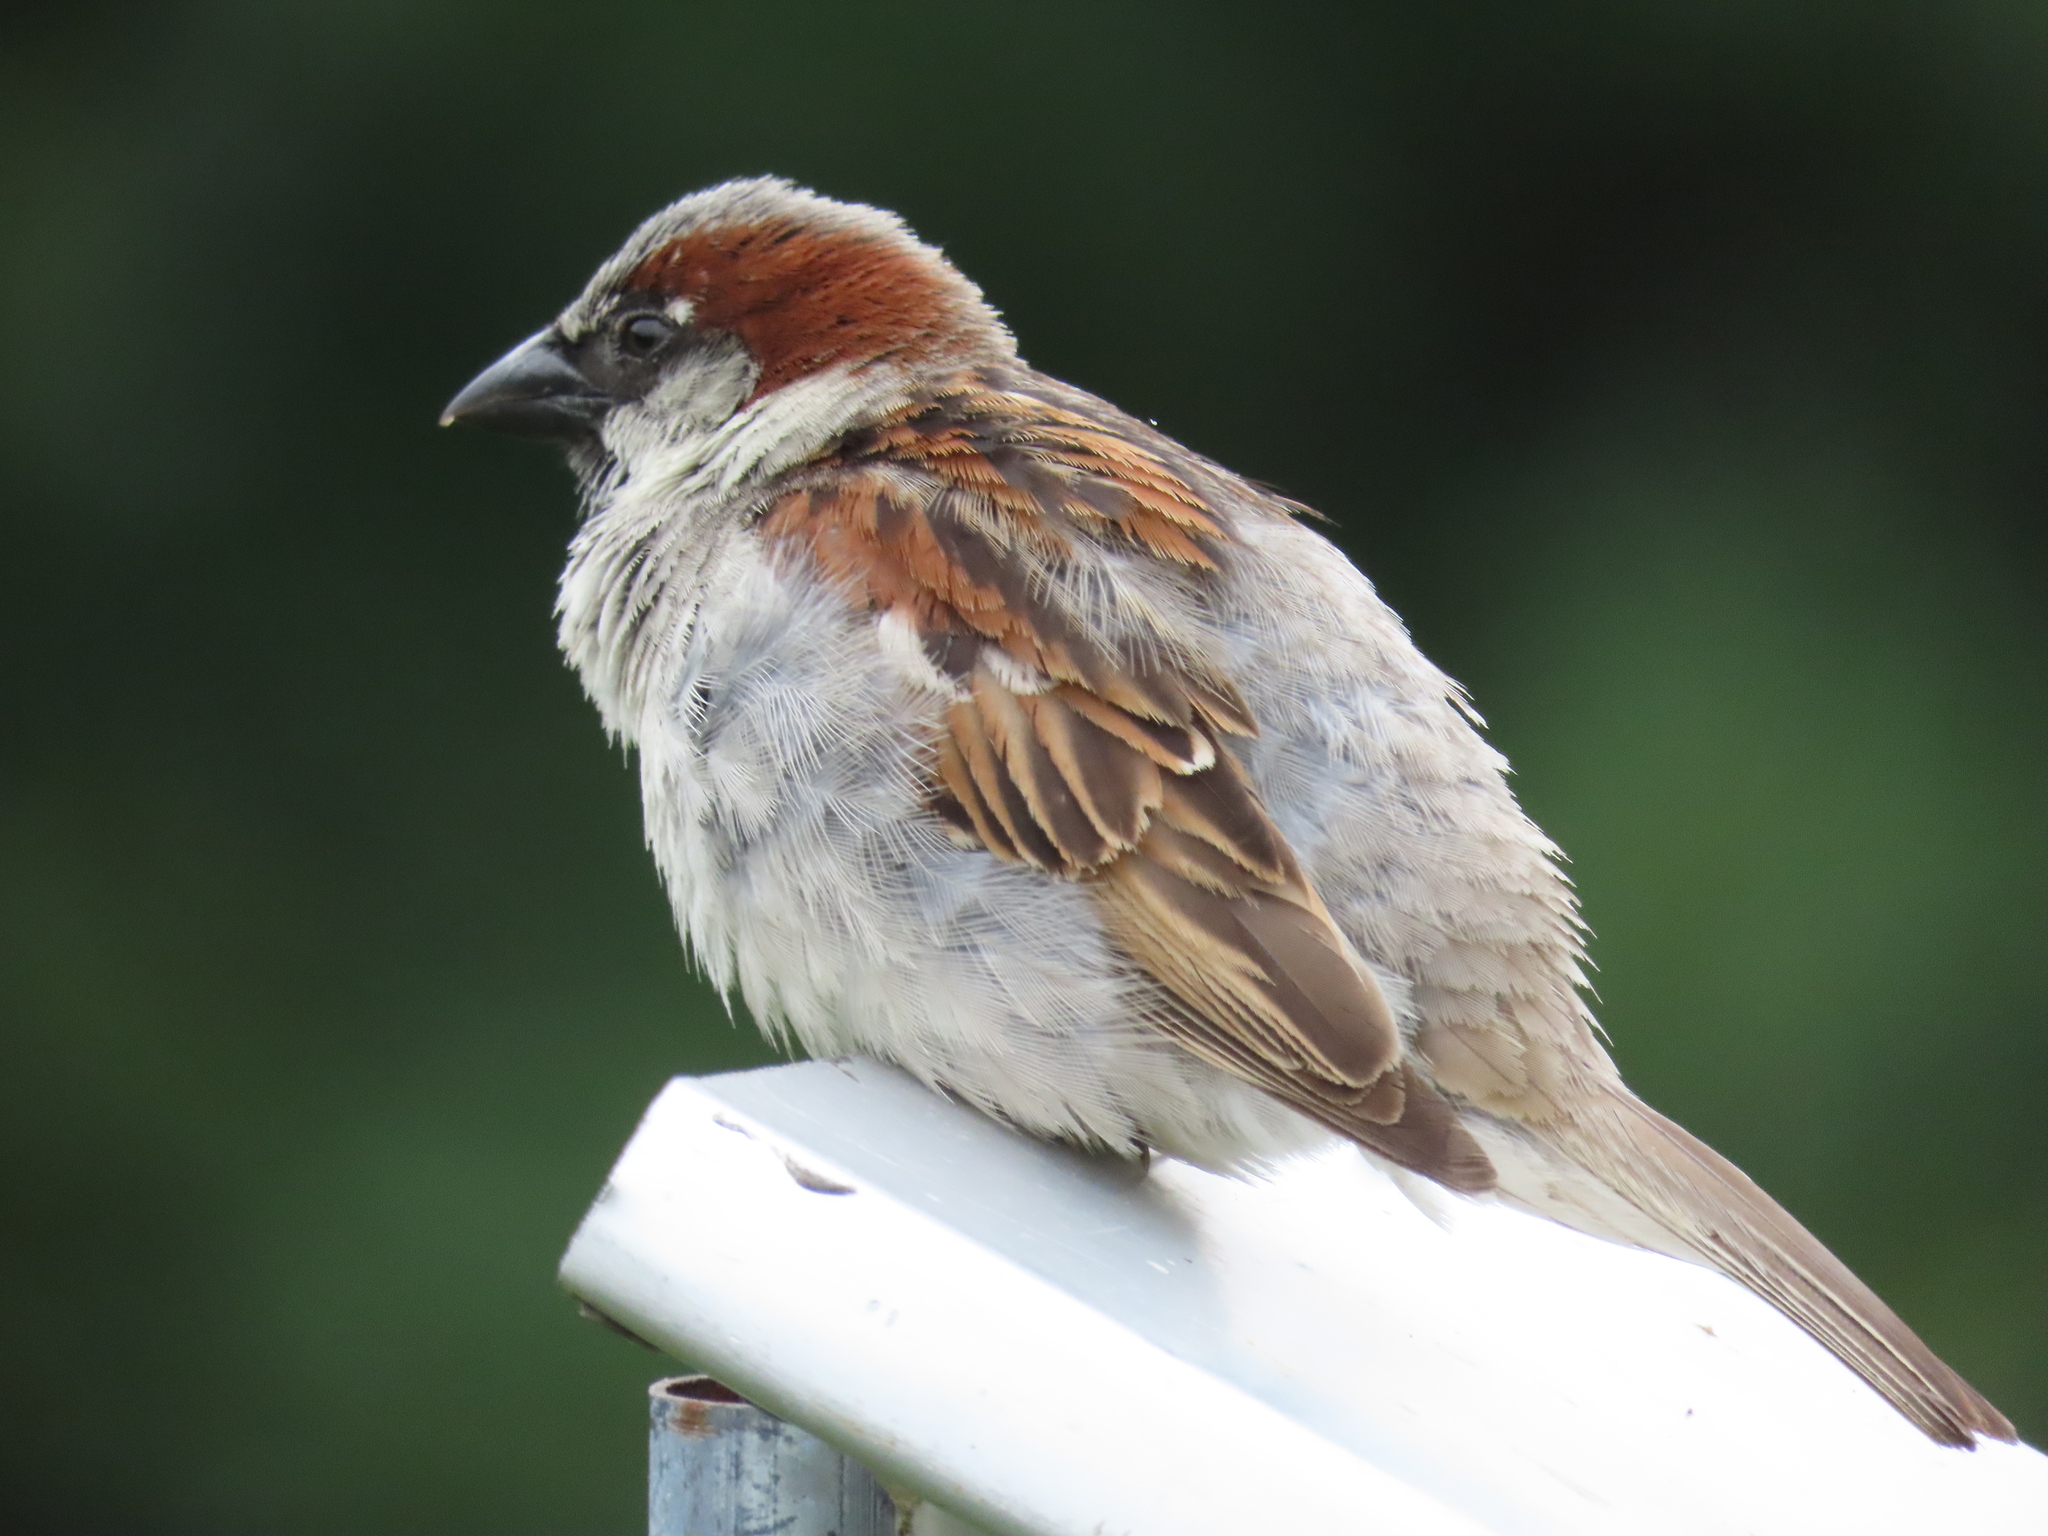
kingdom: Animalia
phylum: Chordata
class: Aves
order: Passeriformes
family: Passeridae
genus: Passer
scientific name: Passer domesticus
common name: House sparrow
